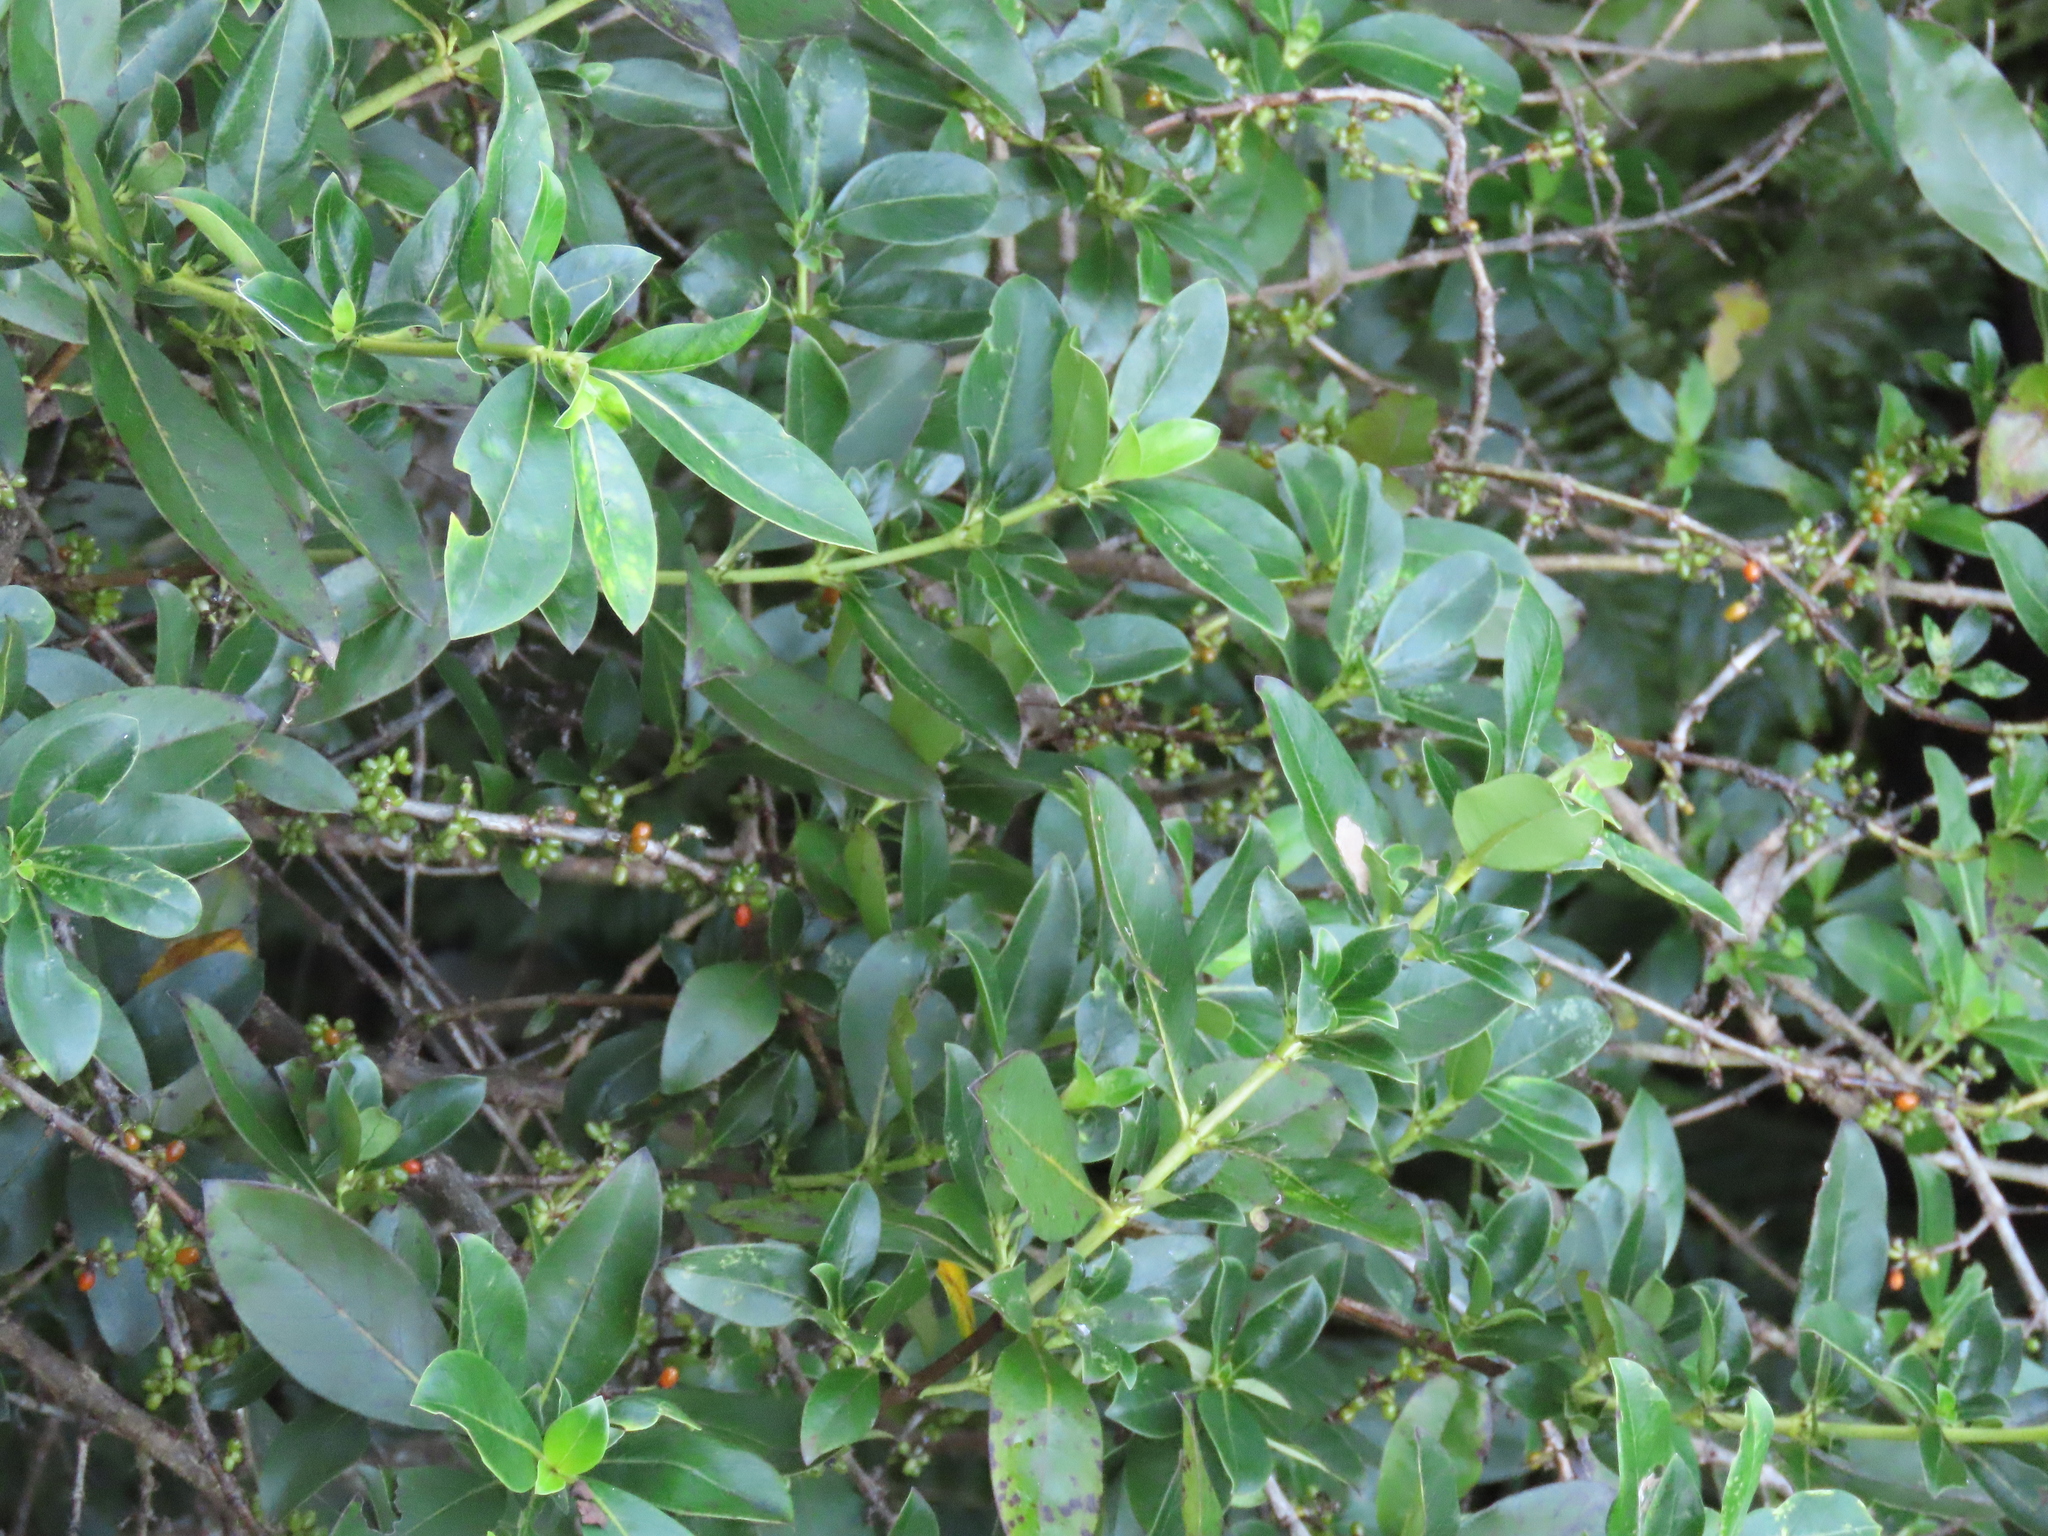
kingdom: Plantae
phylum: Tracheophyta
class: Magnoliopsida
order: Gentianales
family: Rubiaceae
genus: Coprosma
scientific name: Coprosma robusta
